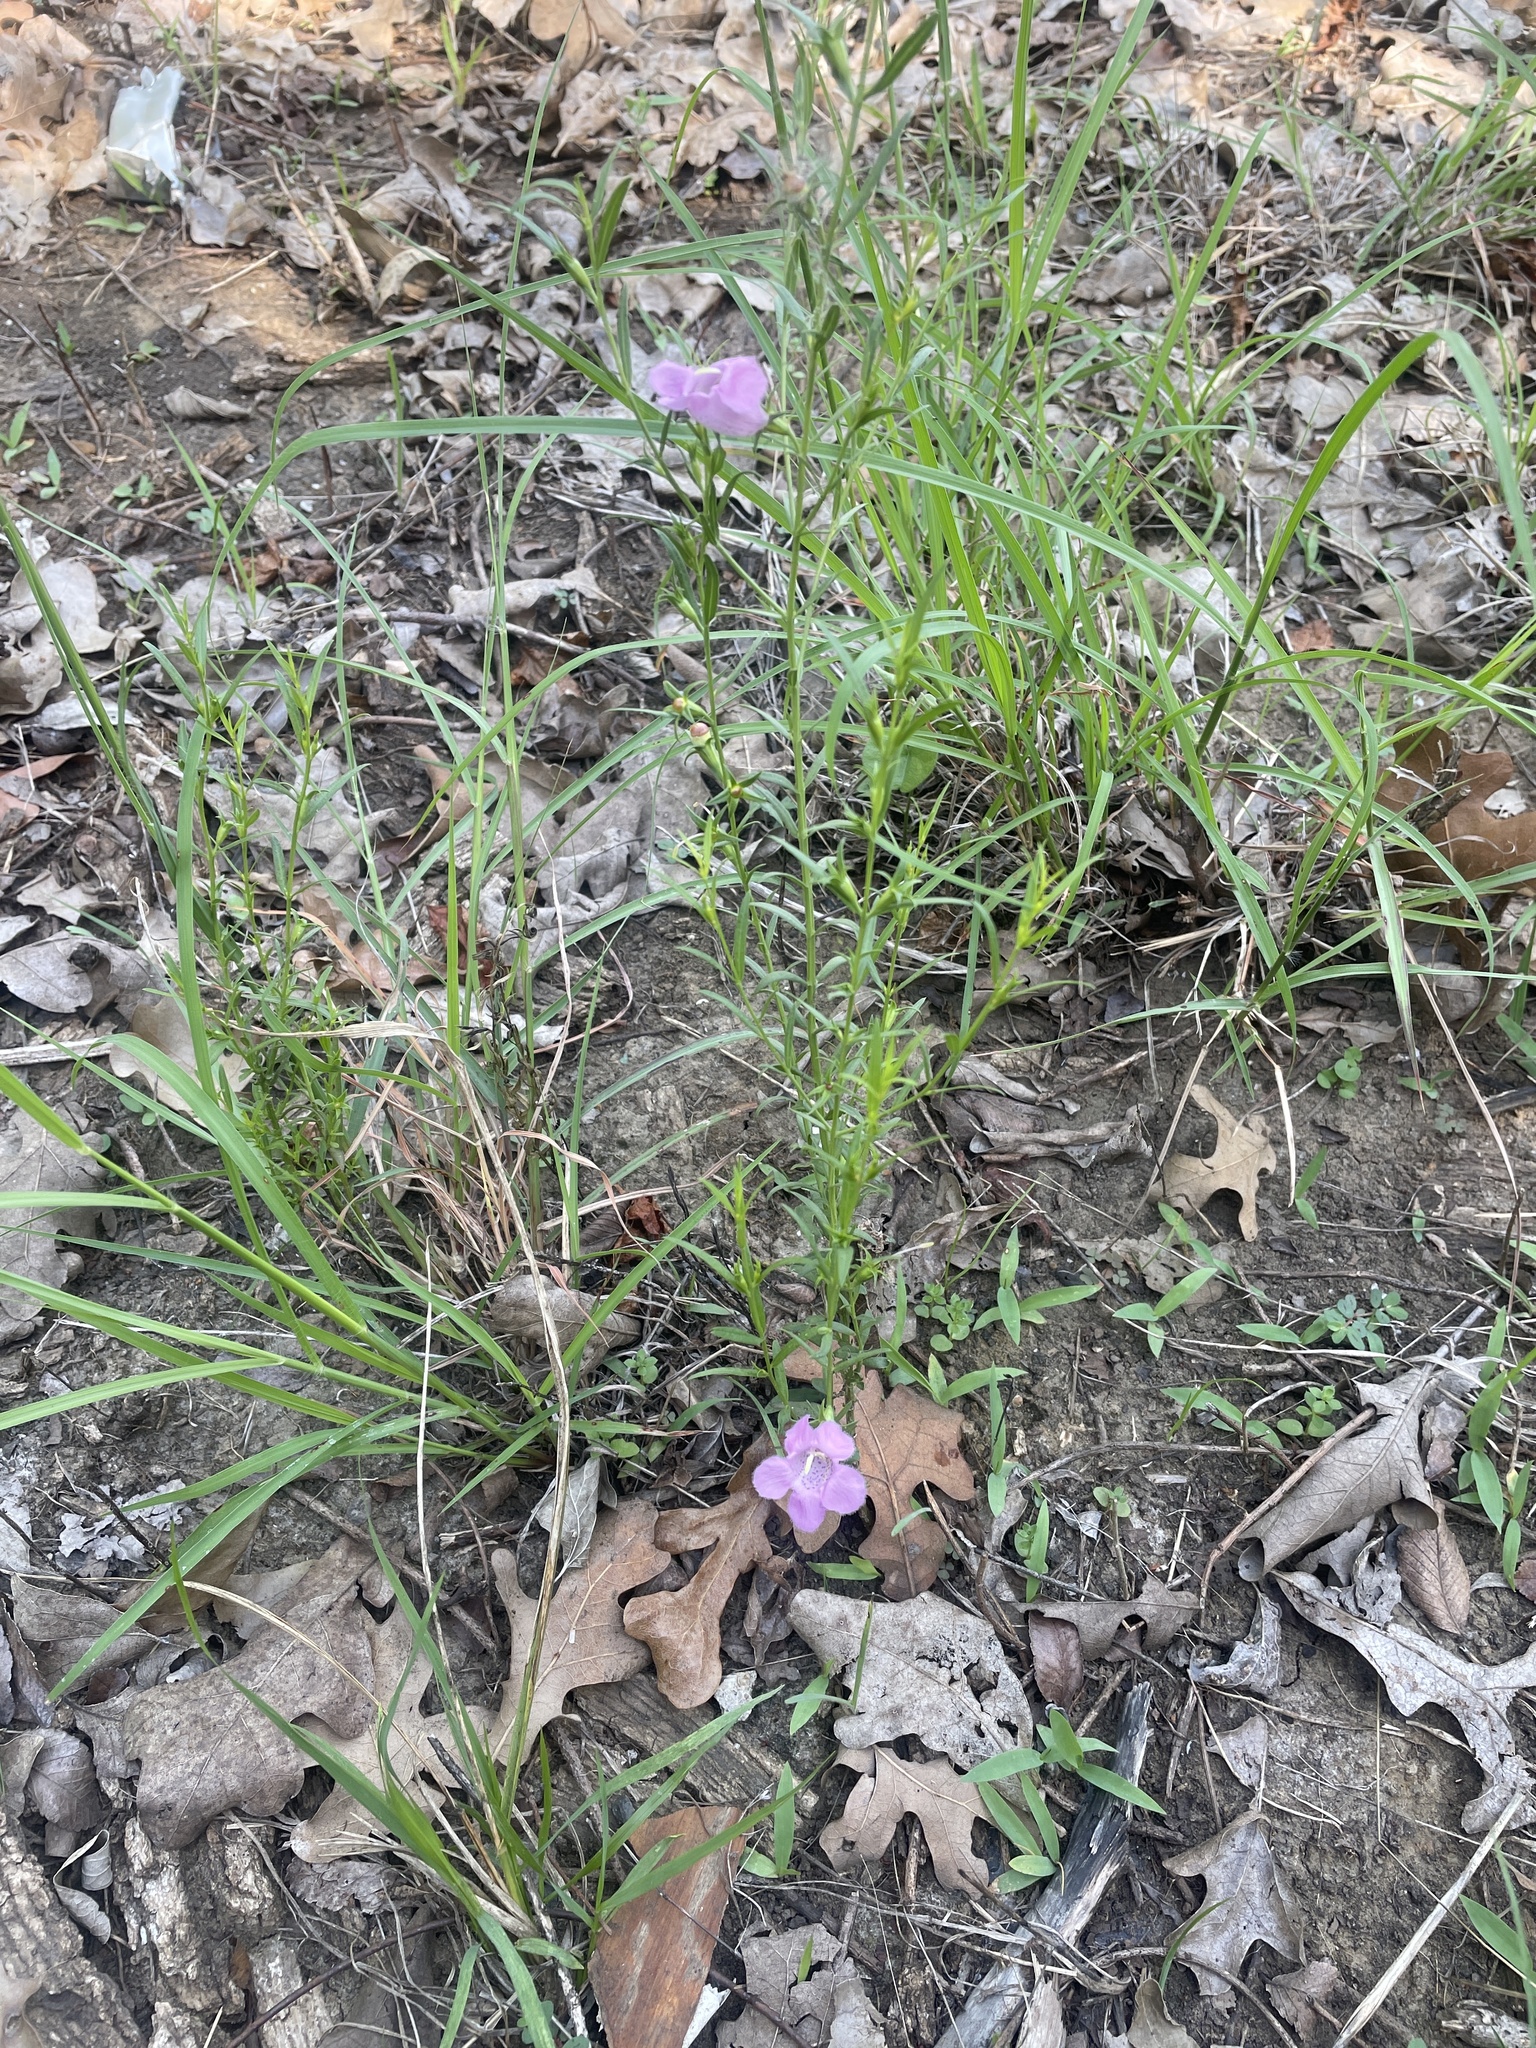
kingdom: Plantae
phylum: Tracheophyta
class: Magnoliopsida
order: Lamiales
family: Orobanchaceae
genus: Agalinis
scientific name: Agalinis heterophylla
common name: Prairie agalinis
